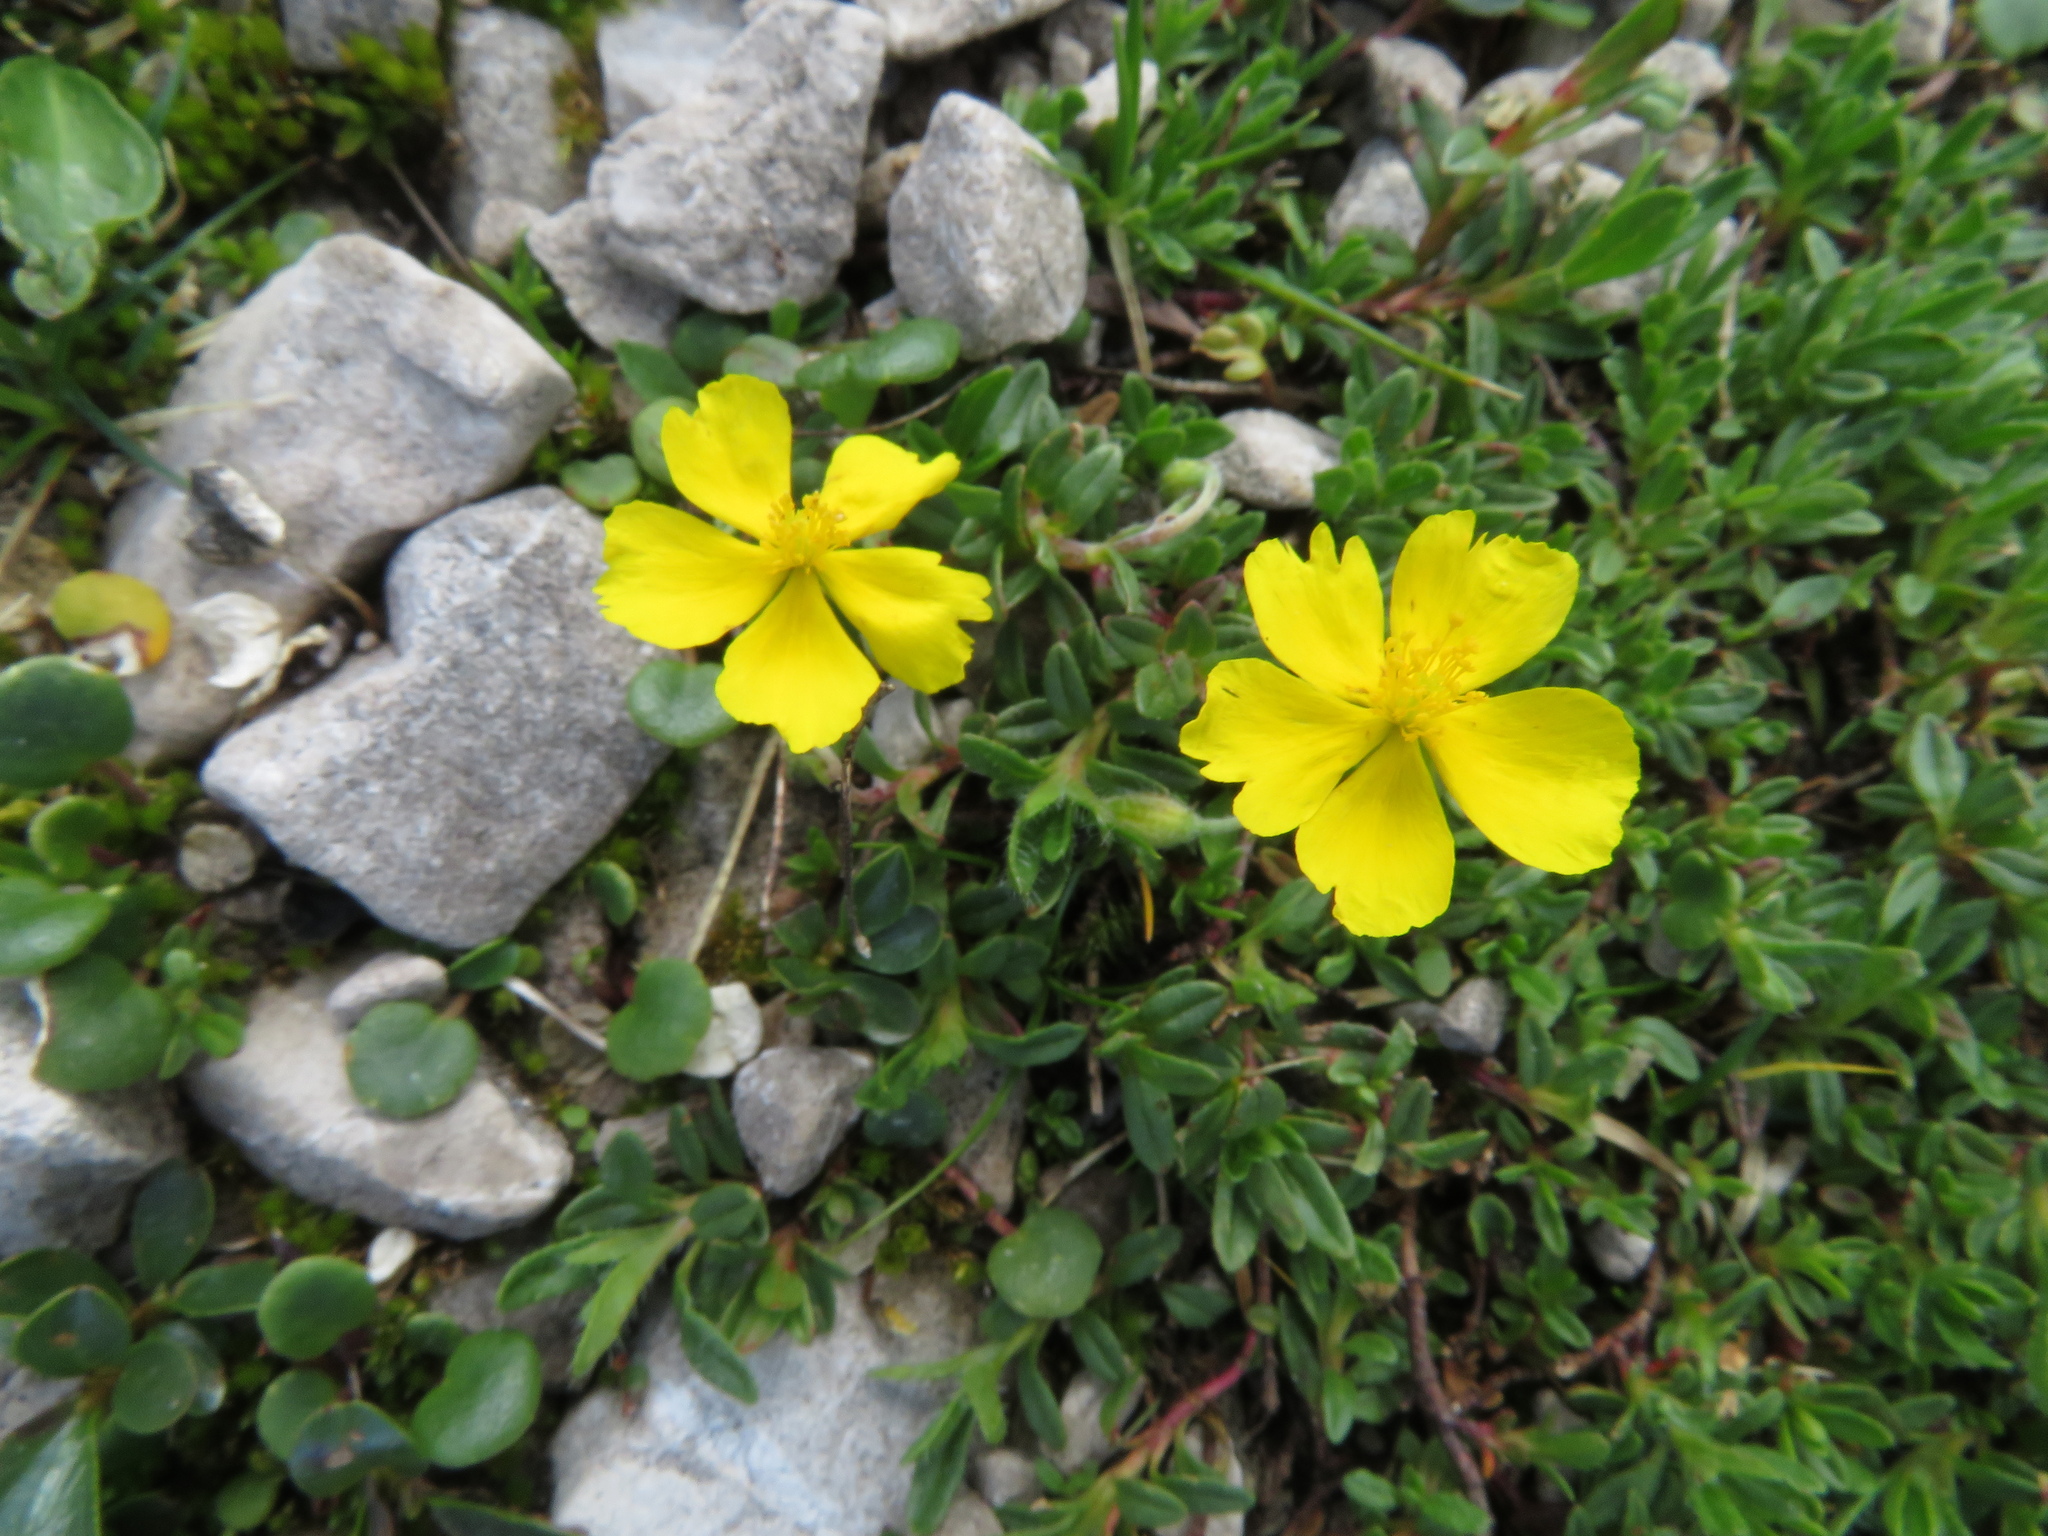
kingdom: Plantae
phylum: Tracheophyta
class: Magnoliopsida
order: Malvales
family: Cistaceae
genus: Helianthemum
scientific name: Helianthemum alpestre
